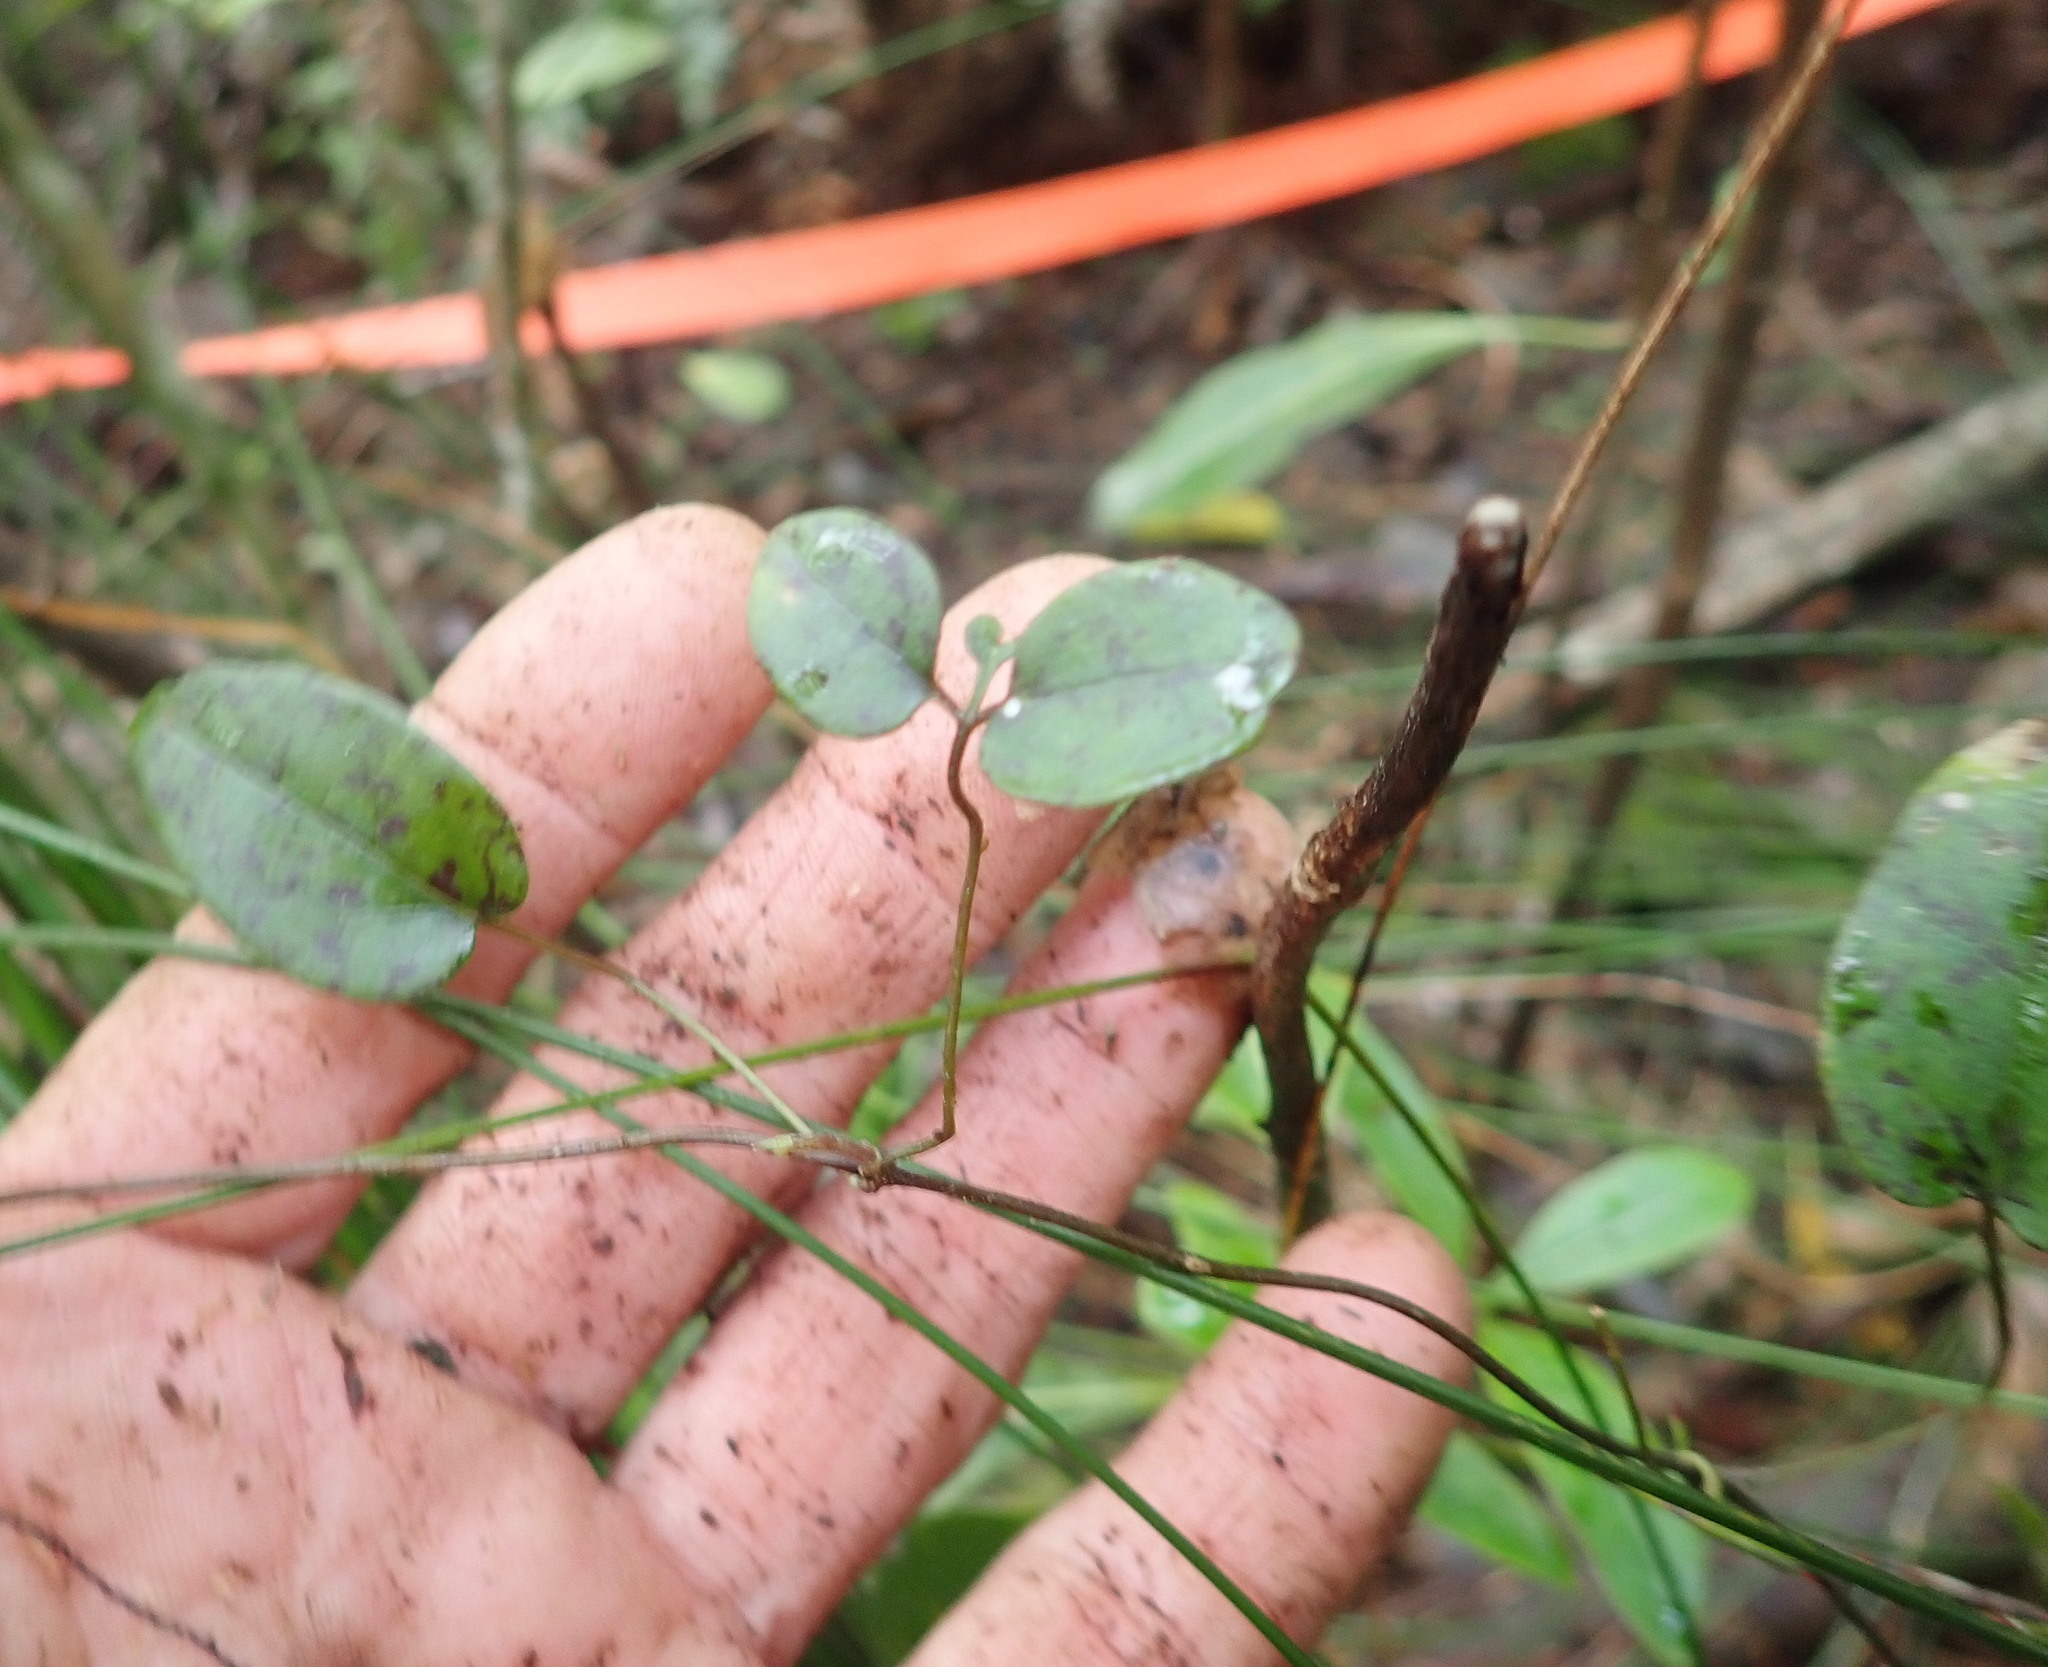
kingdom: Plantae
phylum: Tracheophyta
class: Magnoliopsida
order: Ranunculales
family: Ranunculaceae
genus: Clematis
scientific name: Clematis paniculata
